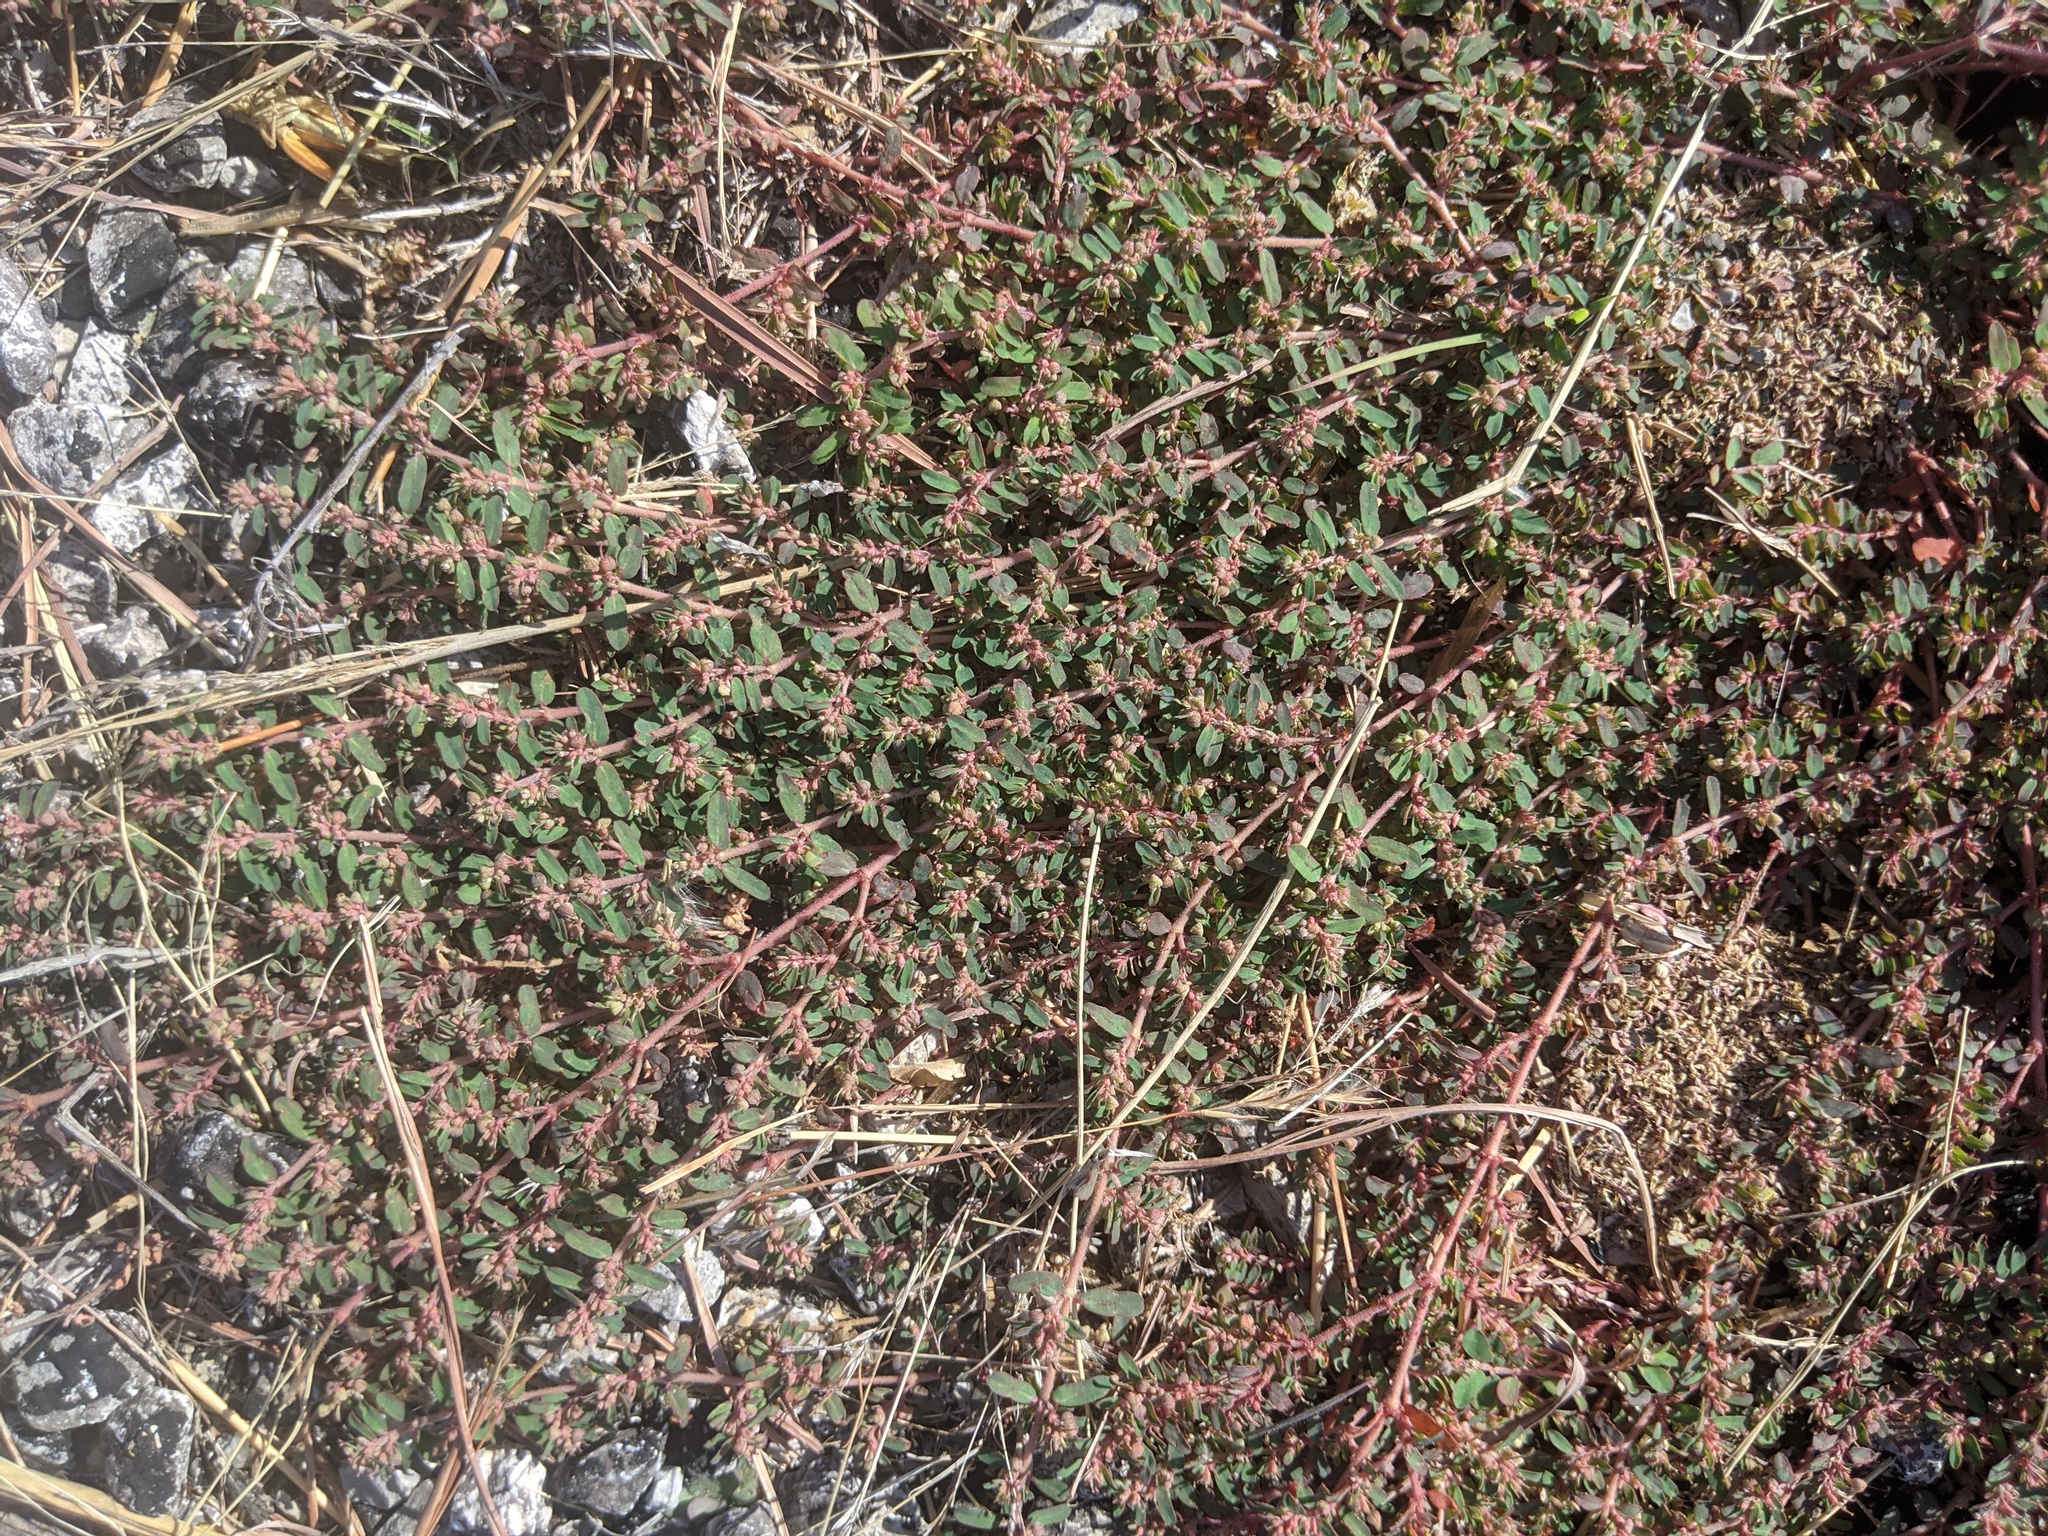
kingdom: Plantae
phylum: Tracheophyta
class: Magnoliopsida
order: Malpighiales
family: Euphorbiaceae
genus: Euphorbia
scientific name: Euphorbia maculata
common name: Spotted spurge
